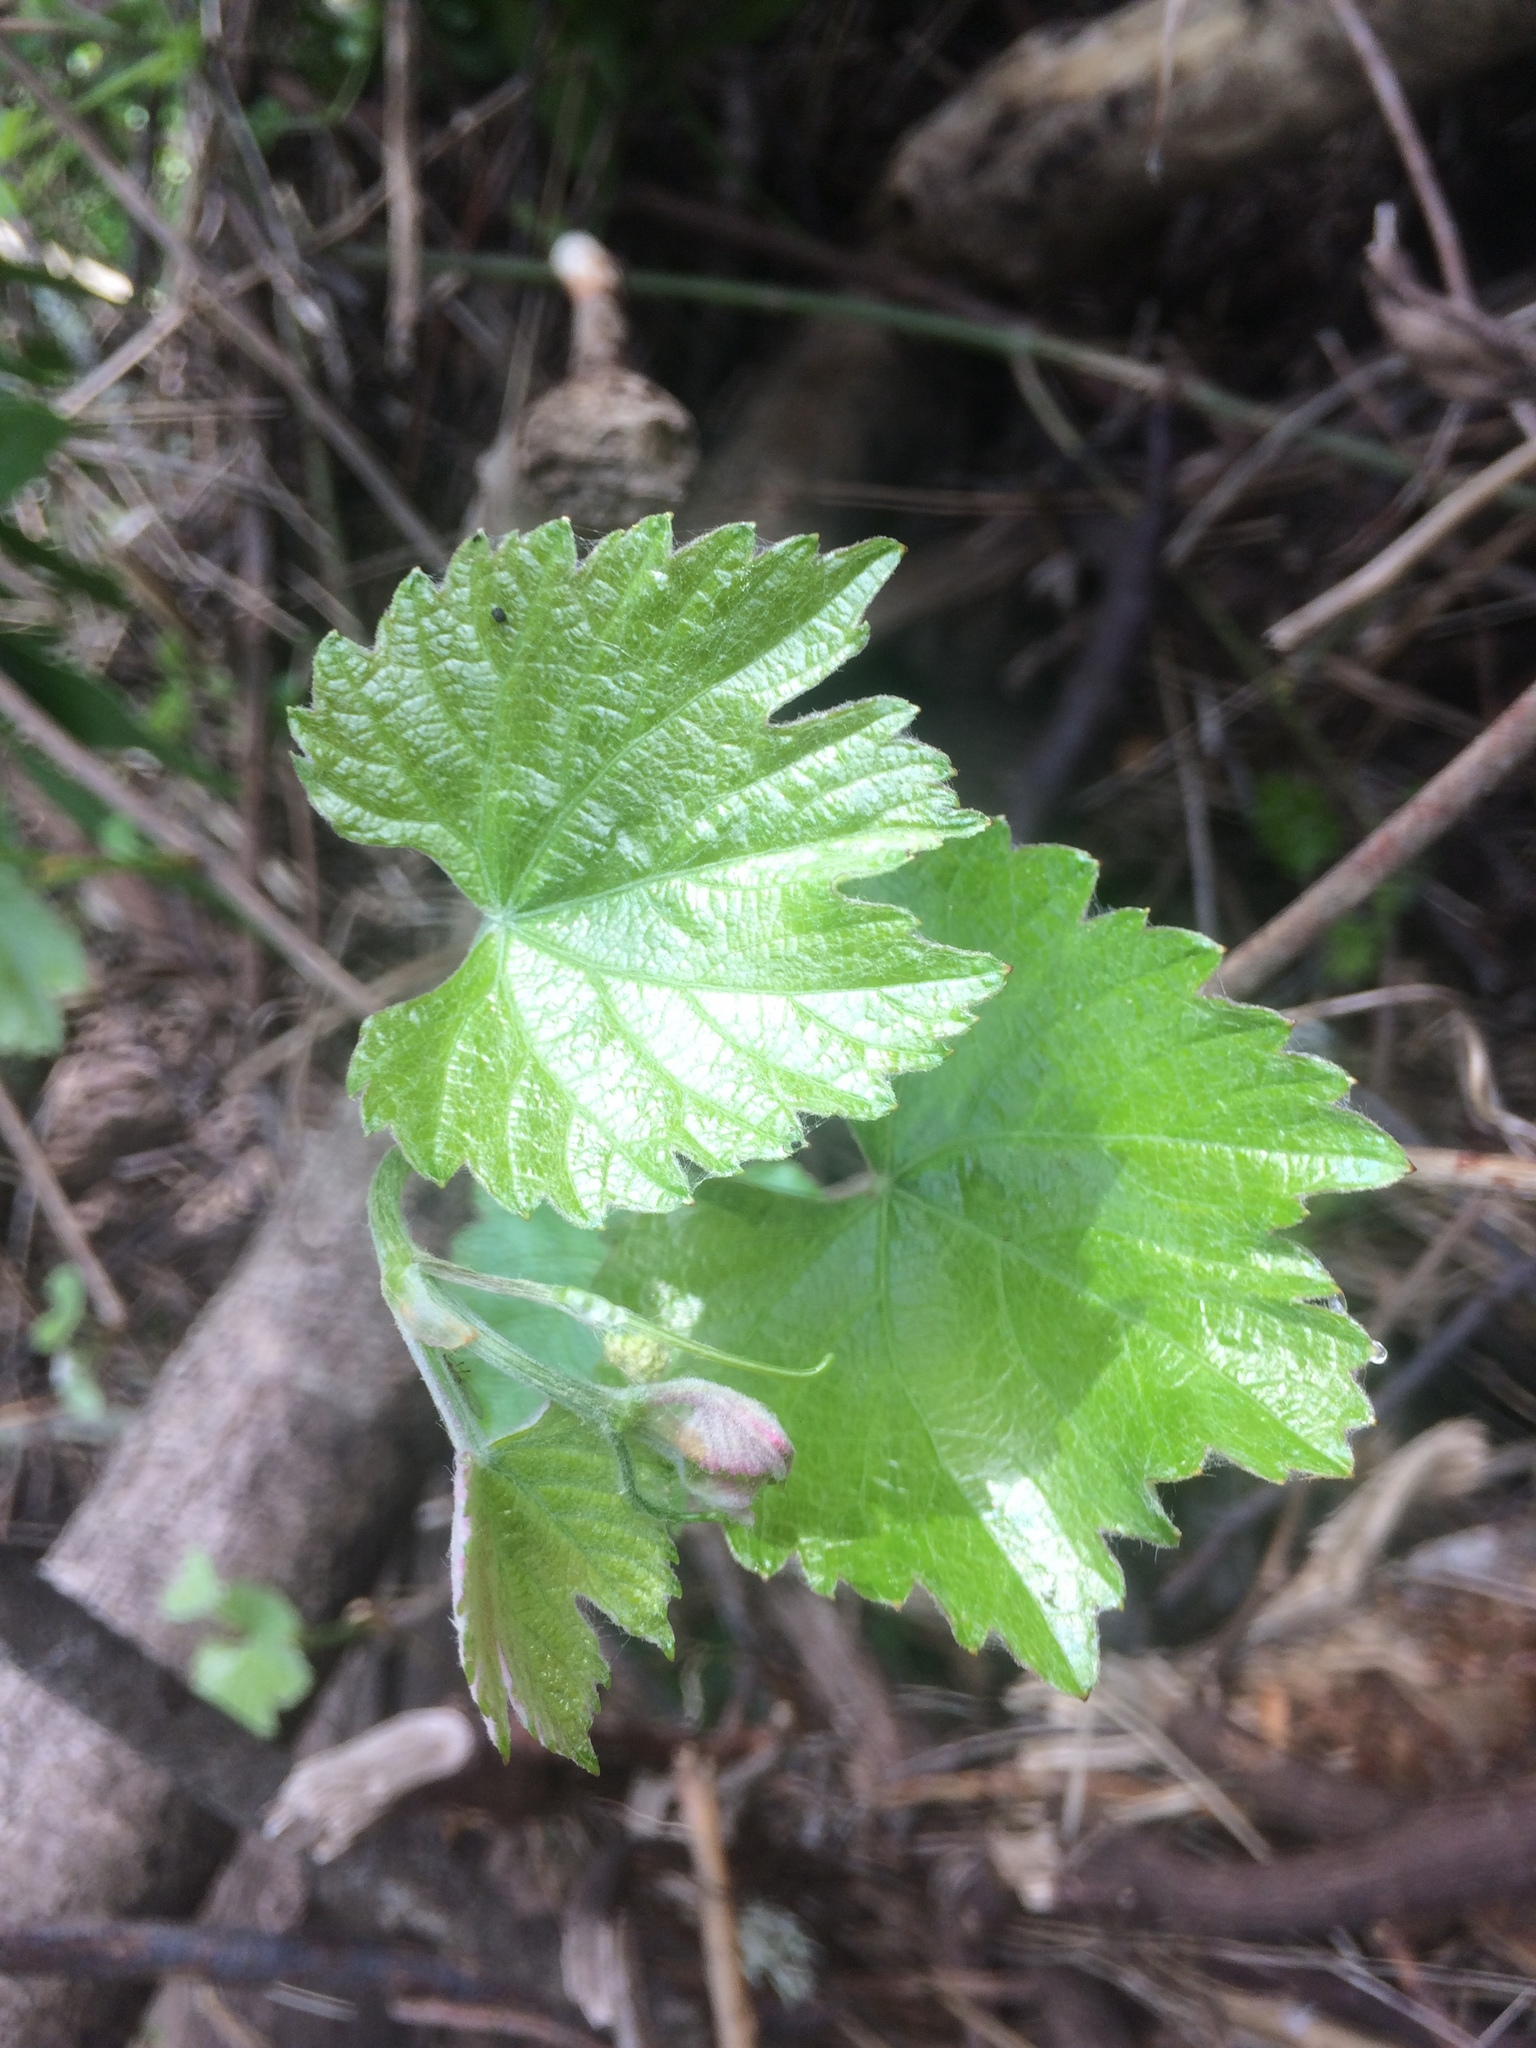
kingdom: Plantae
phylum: Tracheophyta
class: Magnoliopsida
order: Vitales
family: Vitaceae
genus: Vitis
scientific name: Vitis californica
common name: California wild grape
